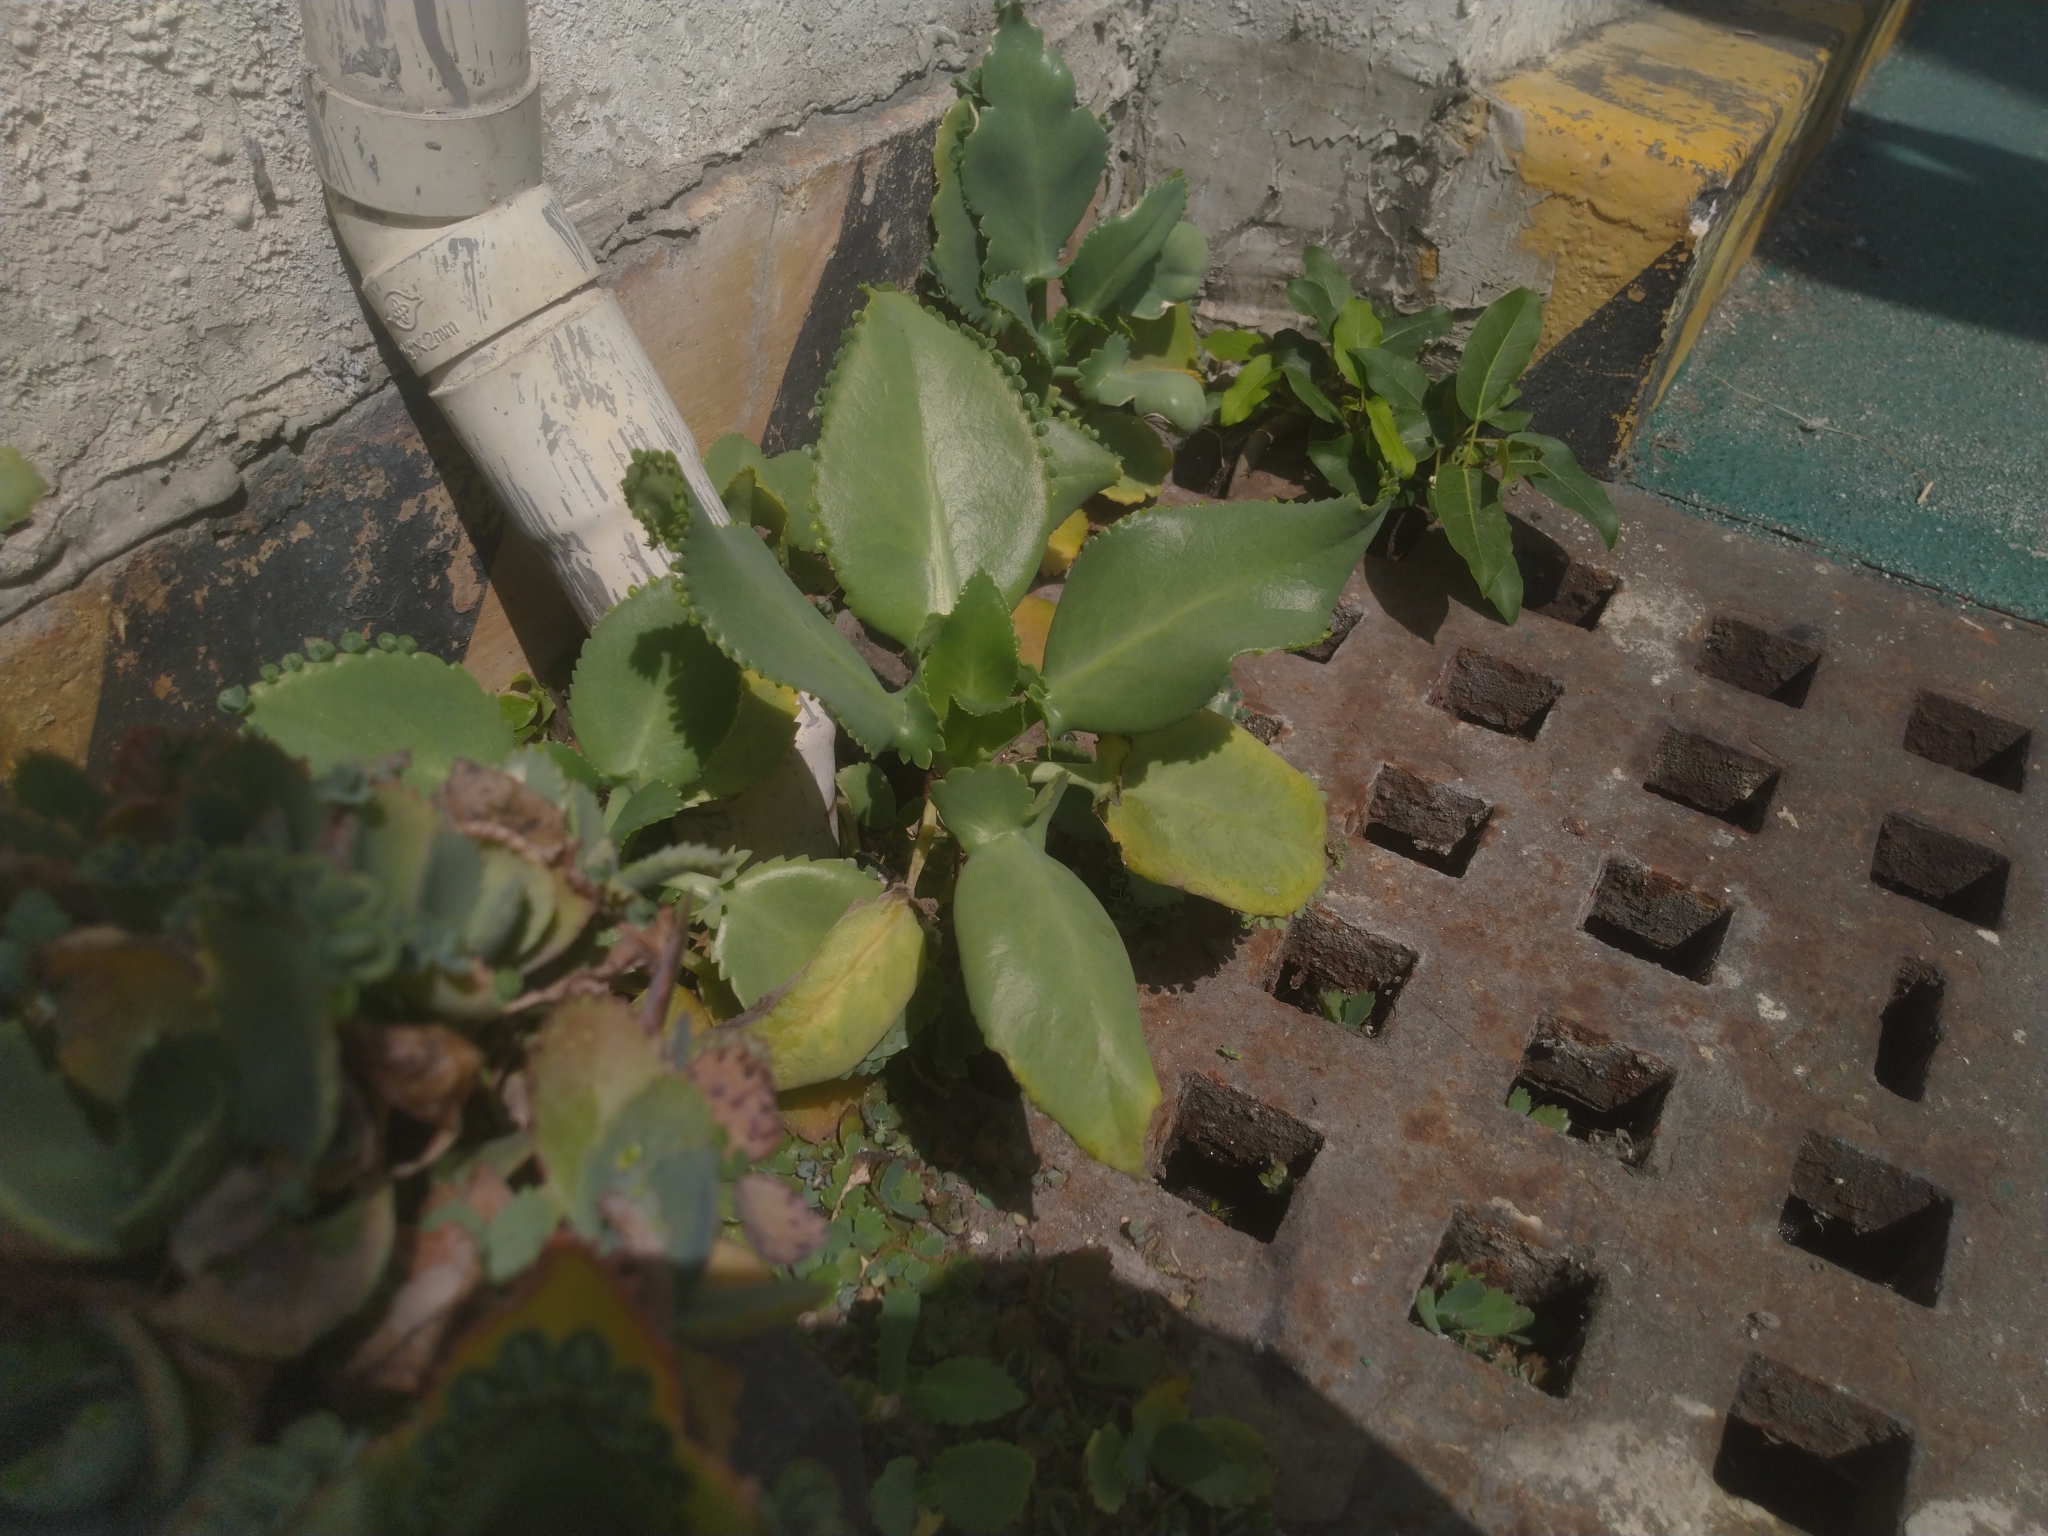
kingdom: Plantae
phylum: Tracheophyta
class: Magnoliopsida
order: Saxifragales
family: Crassulaceae
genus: Kalanchoe
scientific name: Kalanchoe laetivirens
